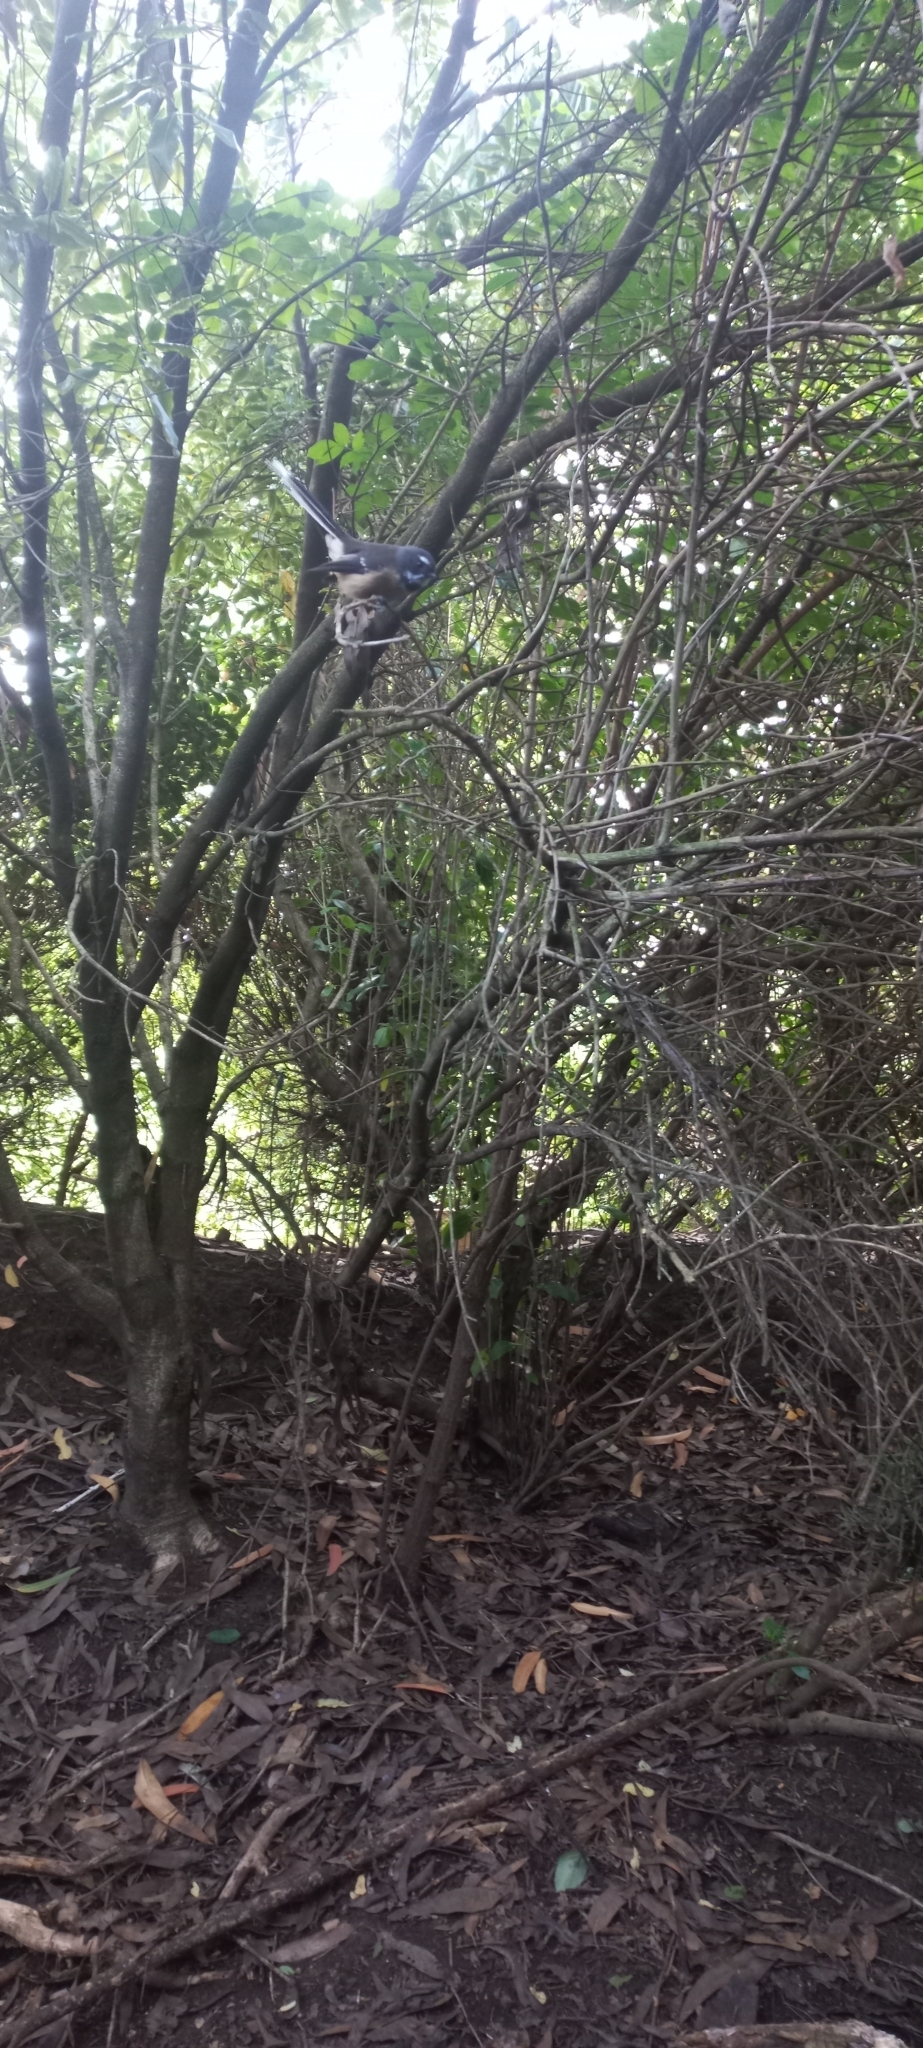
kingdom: Animalia
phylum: Chordata
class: Aves
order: Passeriformes
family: Rhipiduridae
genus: Rhipidura
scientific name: Rhipidura fuliginosa
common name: New zealand fantail
